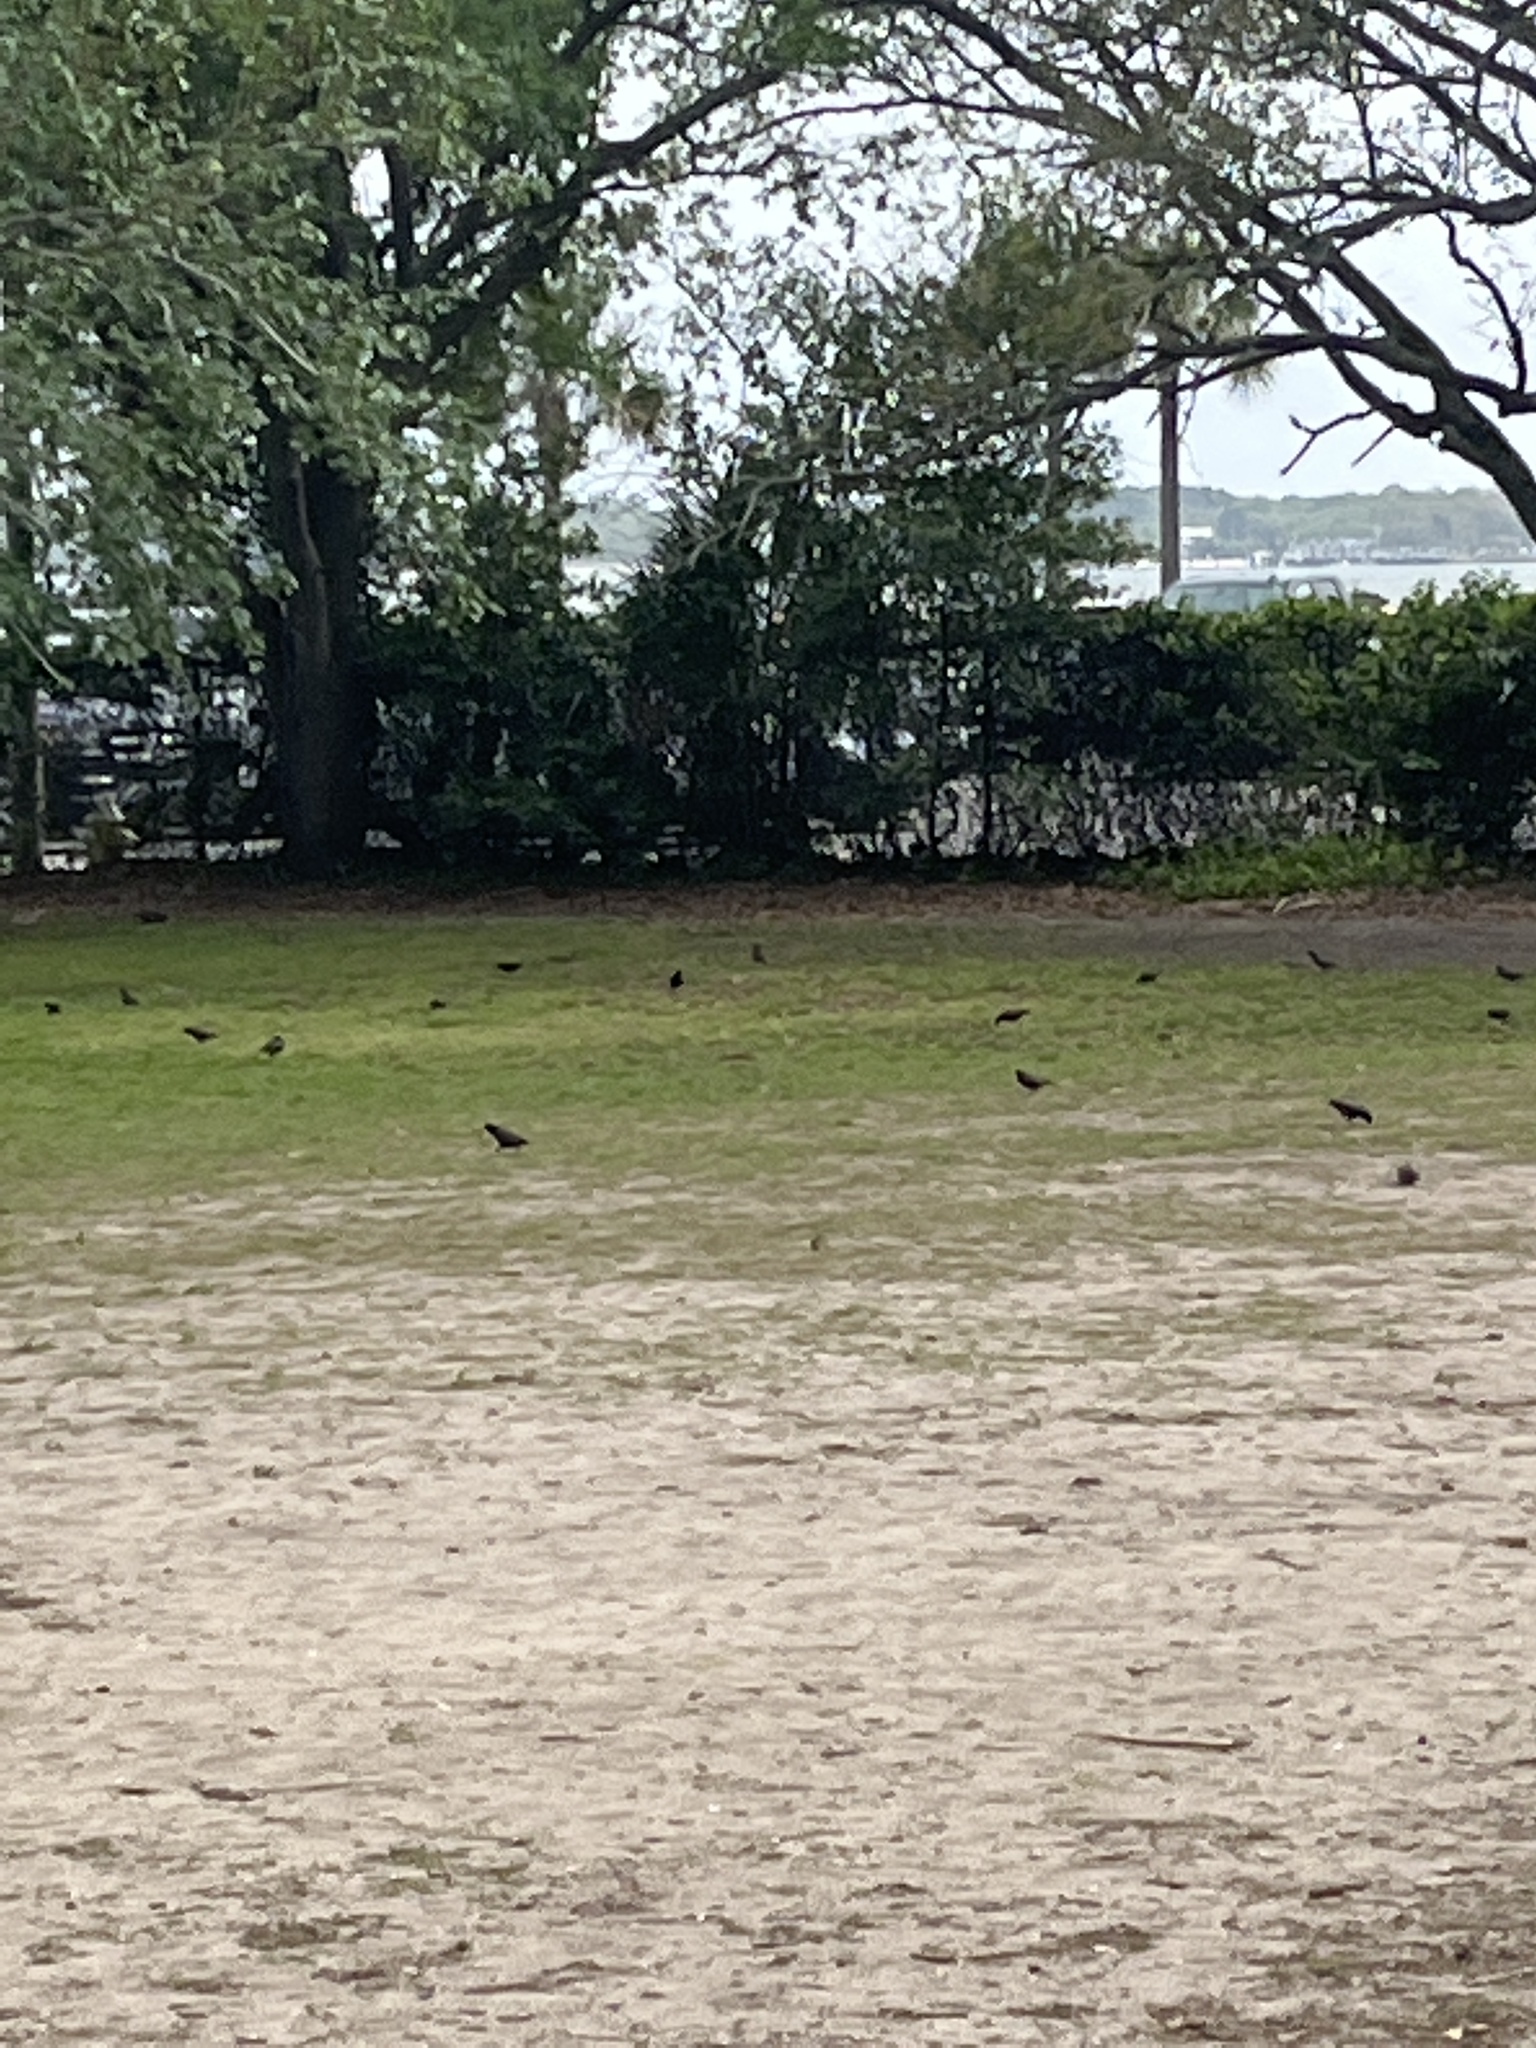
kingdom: Animalia
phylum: Chordata
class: Aves
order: Passeriformes
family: Sturnidae
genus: Sturnus
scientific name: Sturnus vulgaris
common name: Common starling
